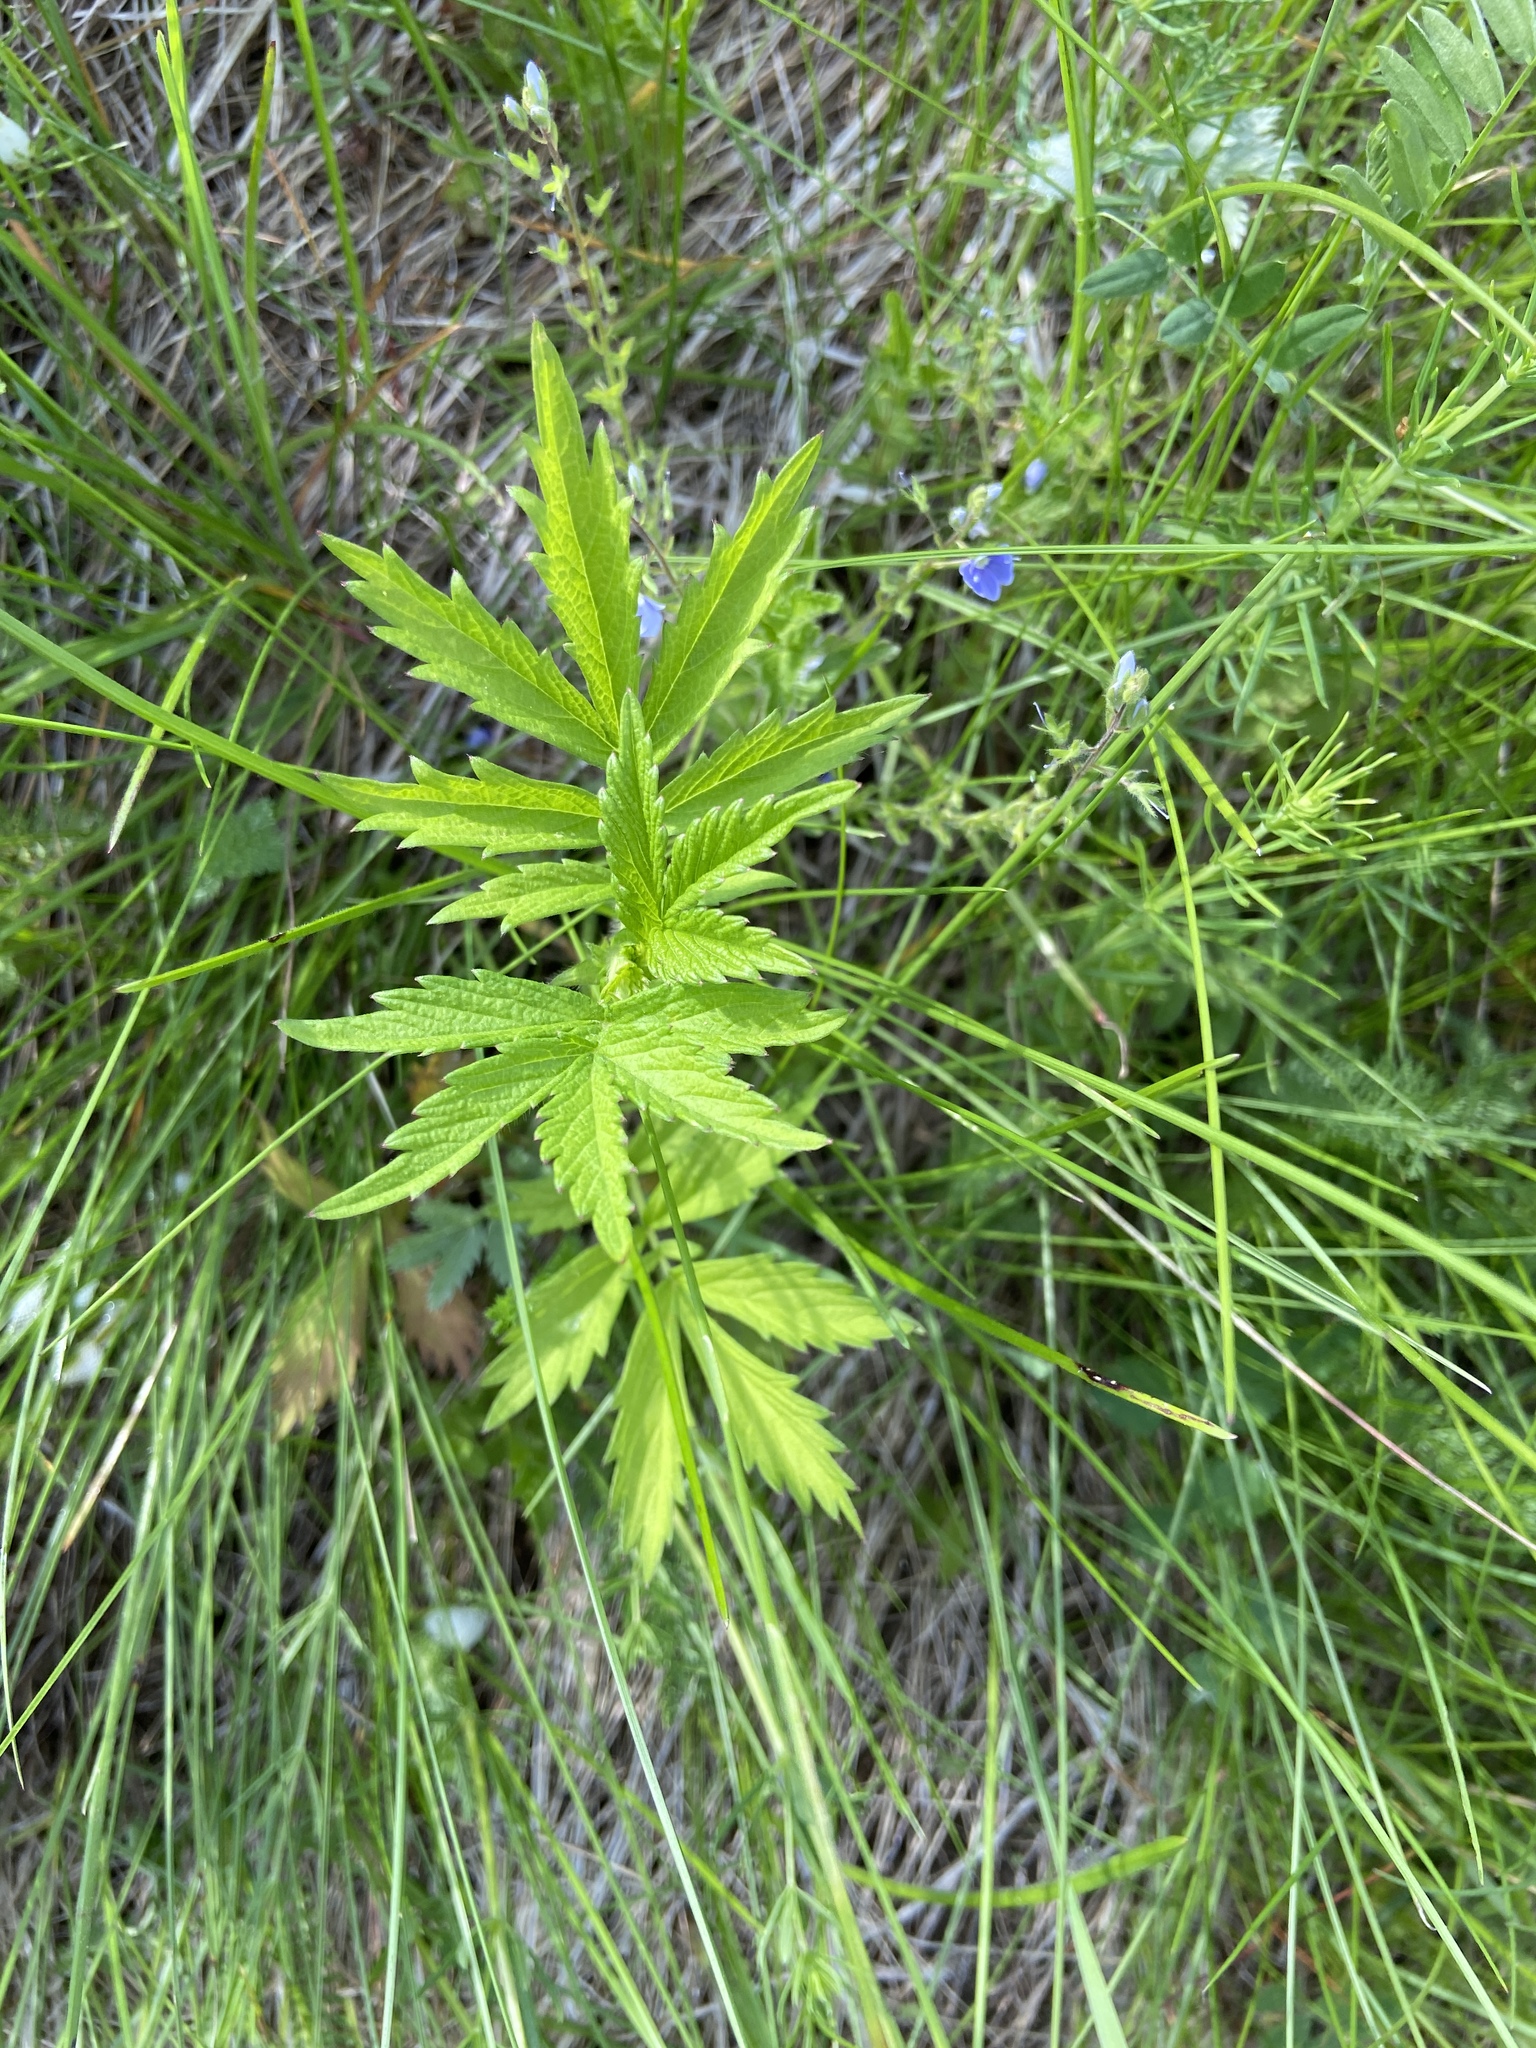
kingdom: Plantae
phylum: Tracheophyta
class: Magnoliopsida
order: Rosales
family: Rosaceae
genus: Agrimonia
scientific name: Agrimonia pilosa
